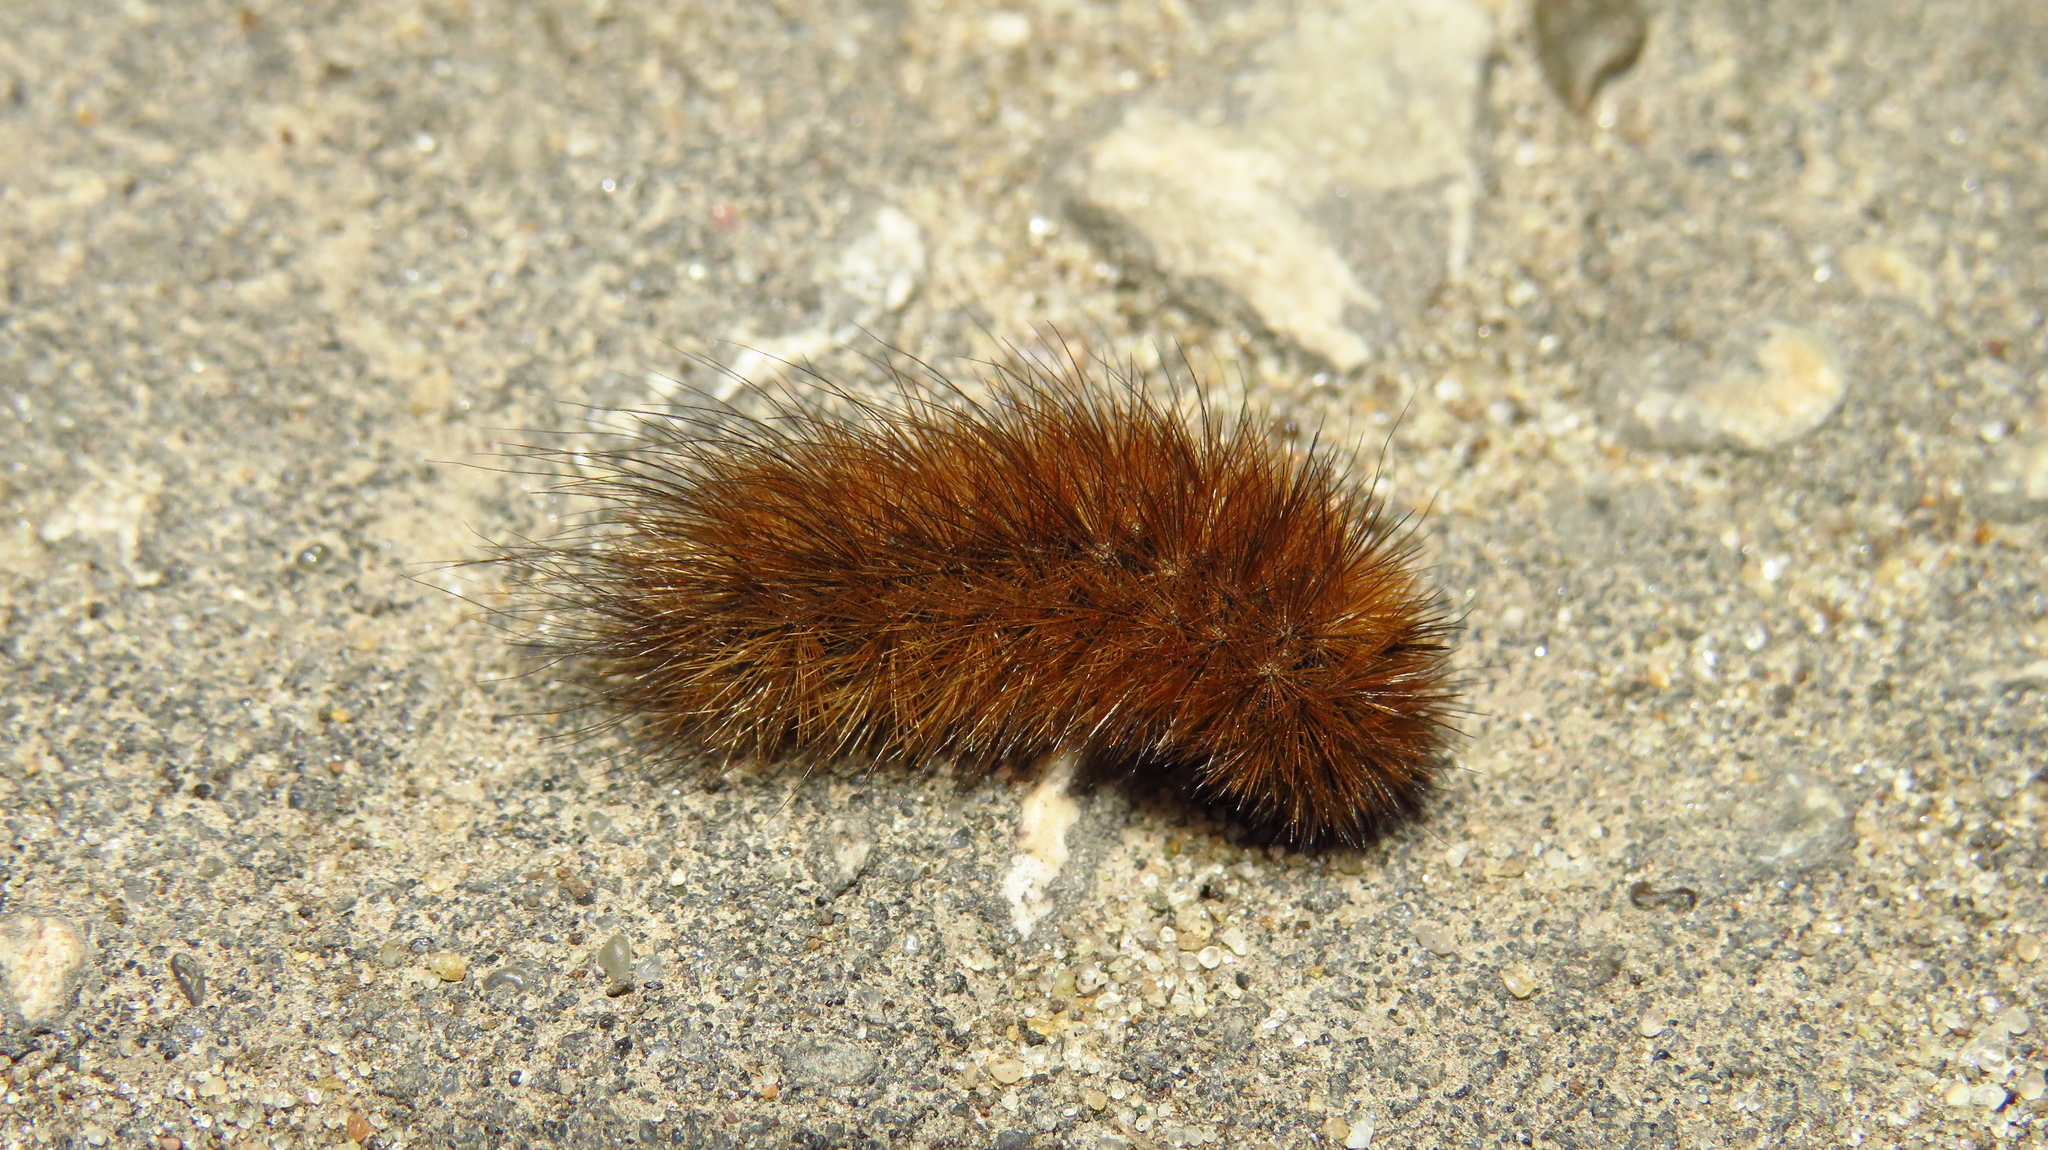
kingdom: Animalia
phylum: Arthropoda
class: Insecta
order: Lepidoptera
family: Erebidae
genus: Phragmatobia
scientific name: Phragmatobia fuliginosa
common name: Ruby tiger
